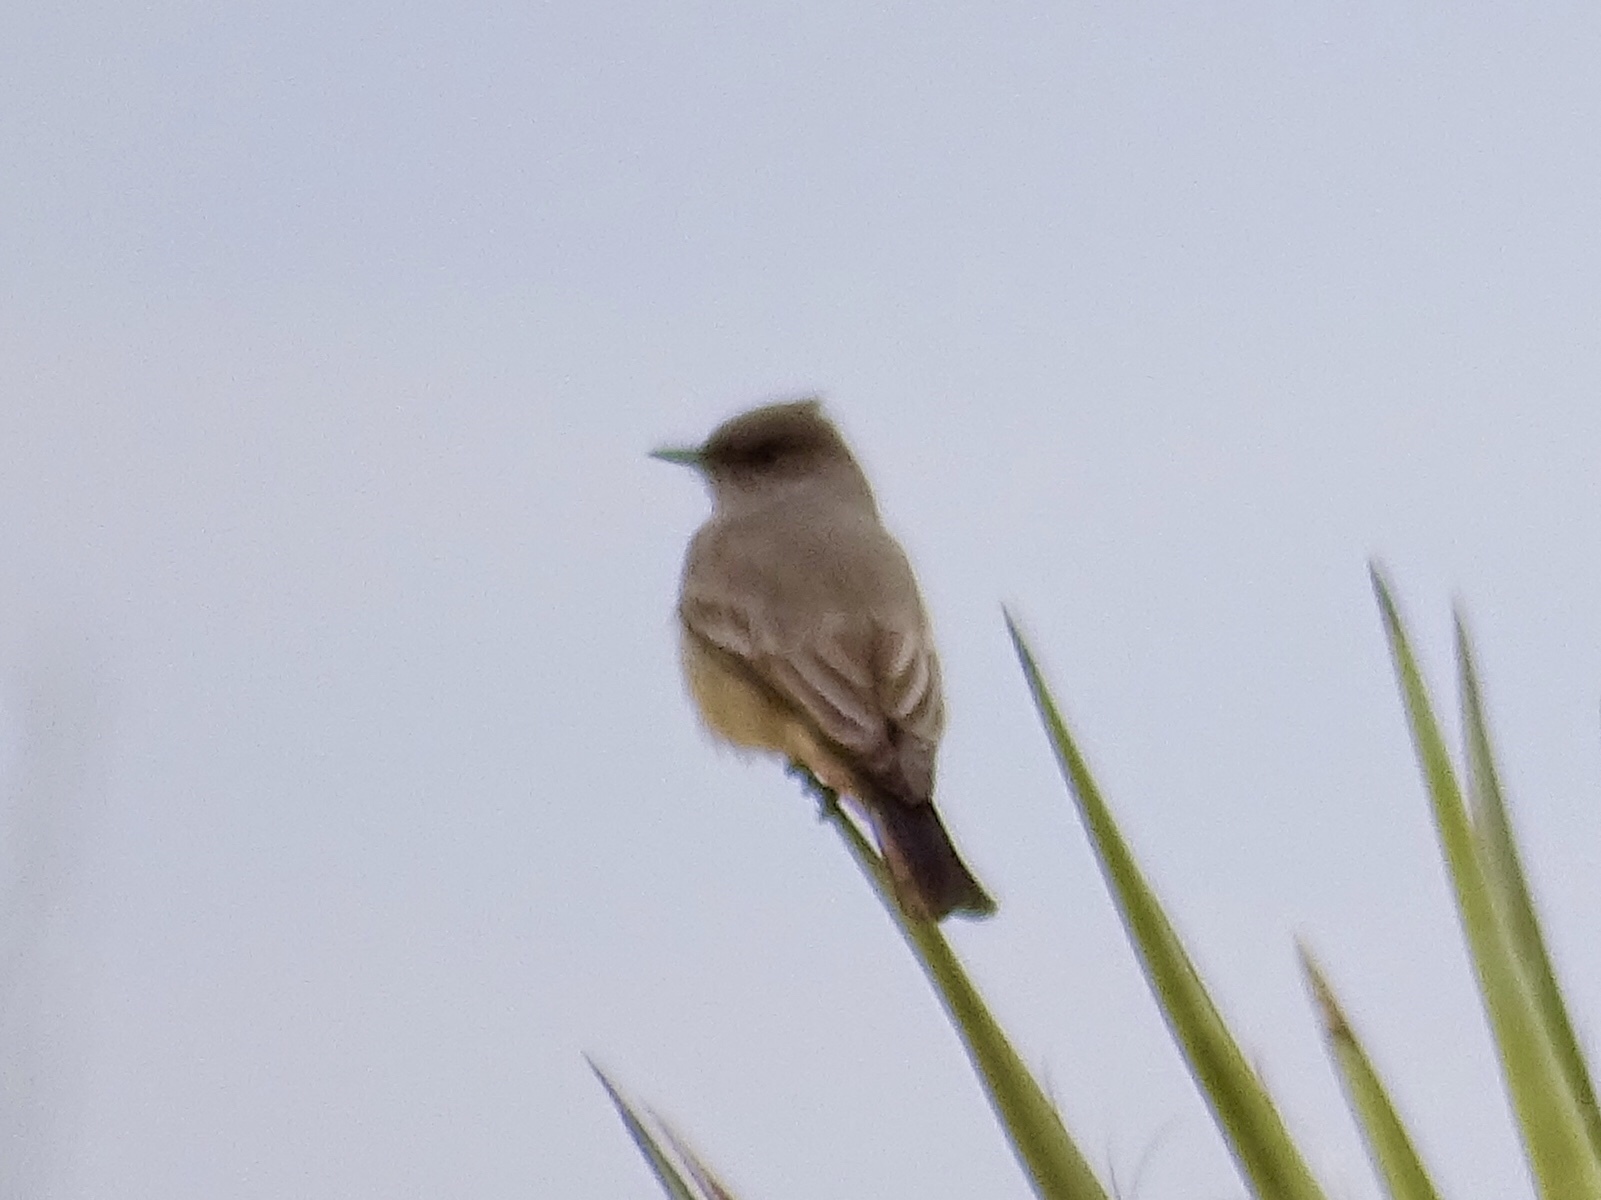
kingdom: Animalia
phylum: Chordata
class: Aves
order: Passeriformes
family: Tyrannidae
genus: Sayornis
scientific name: Sayornis saya
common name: Say's phoebe
